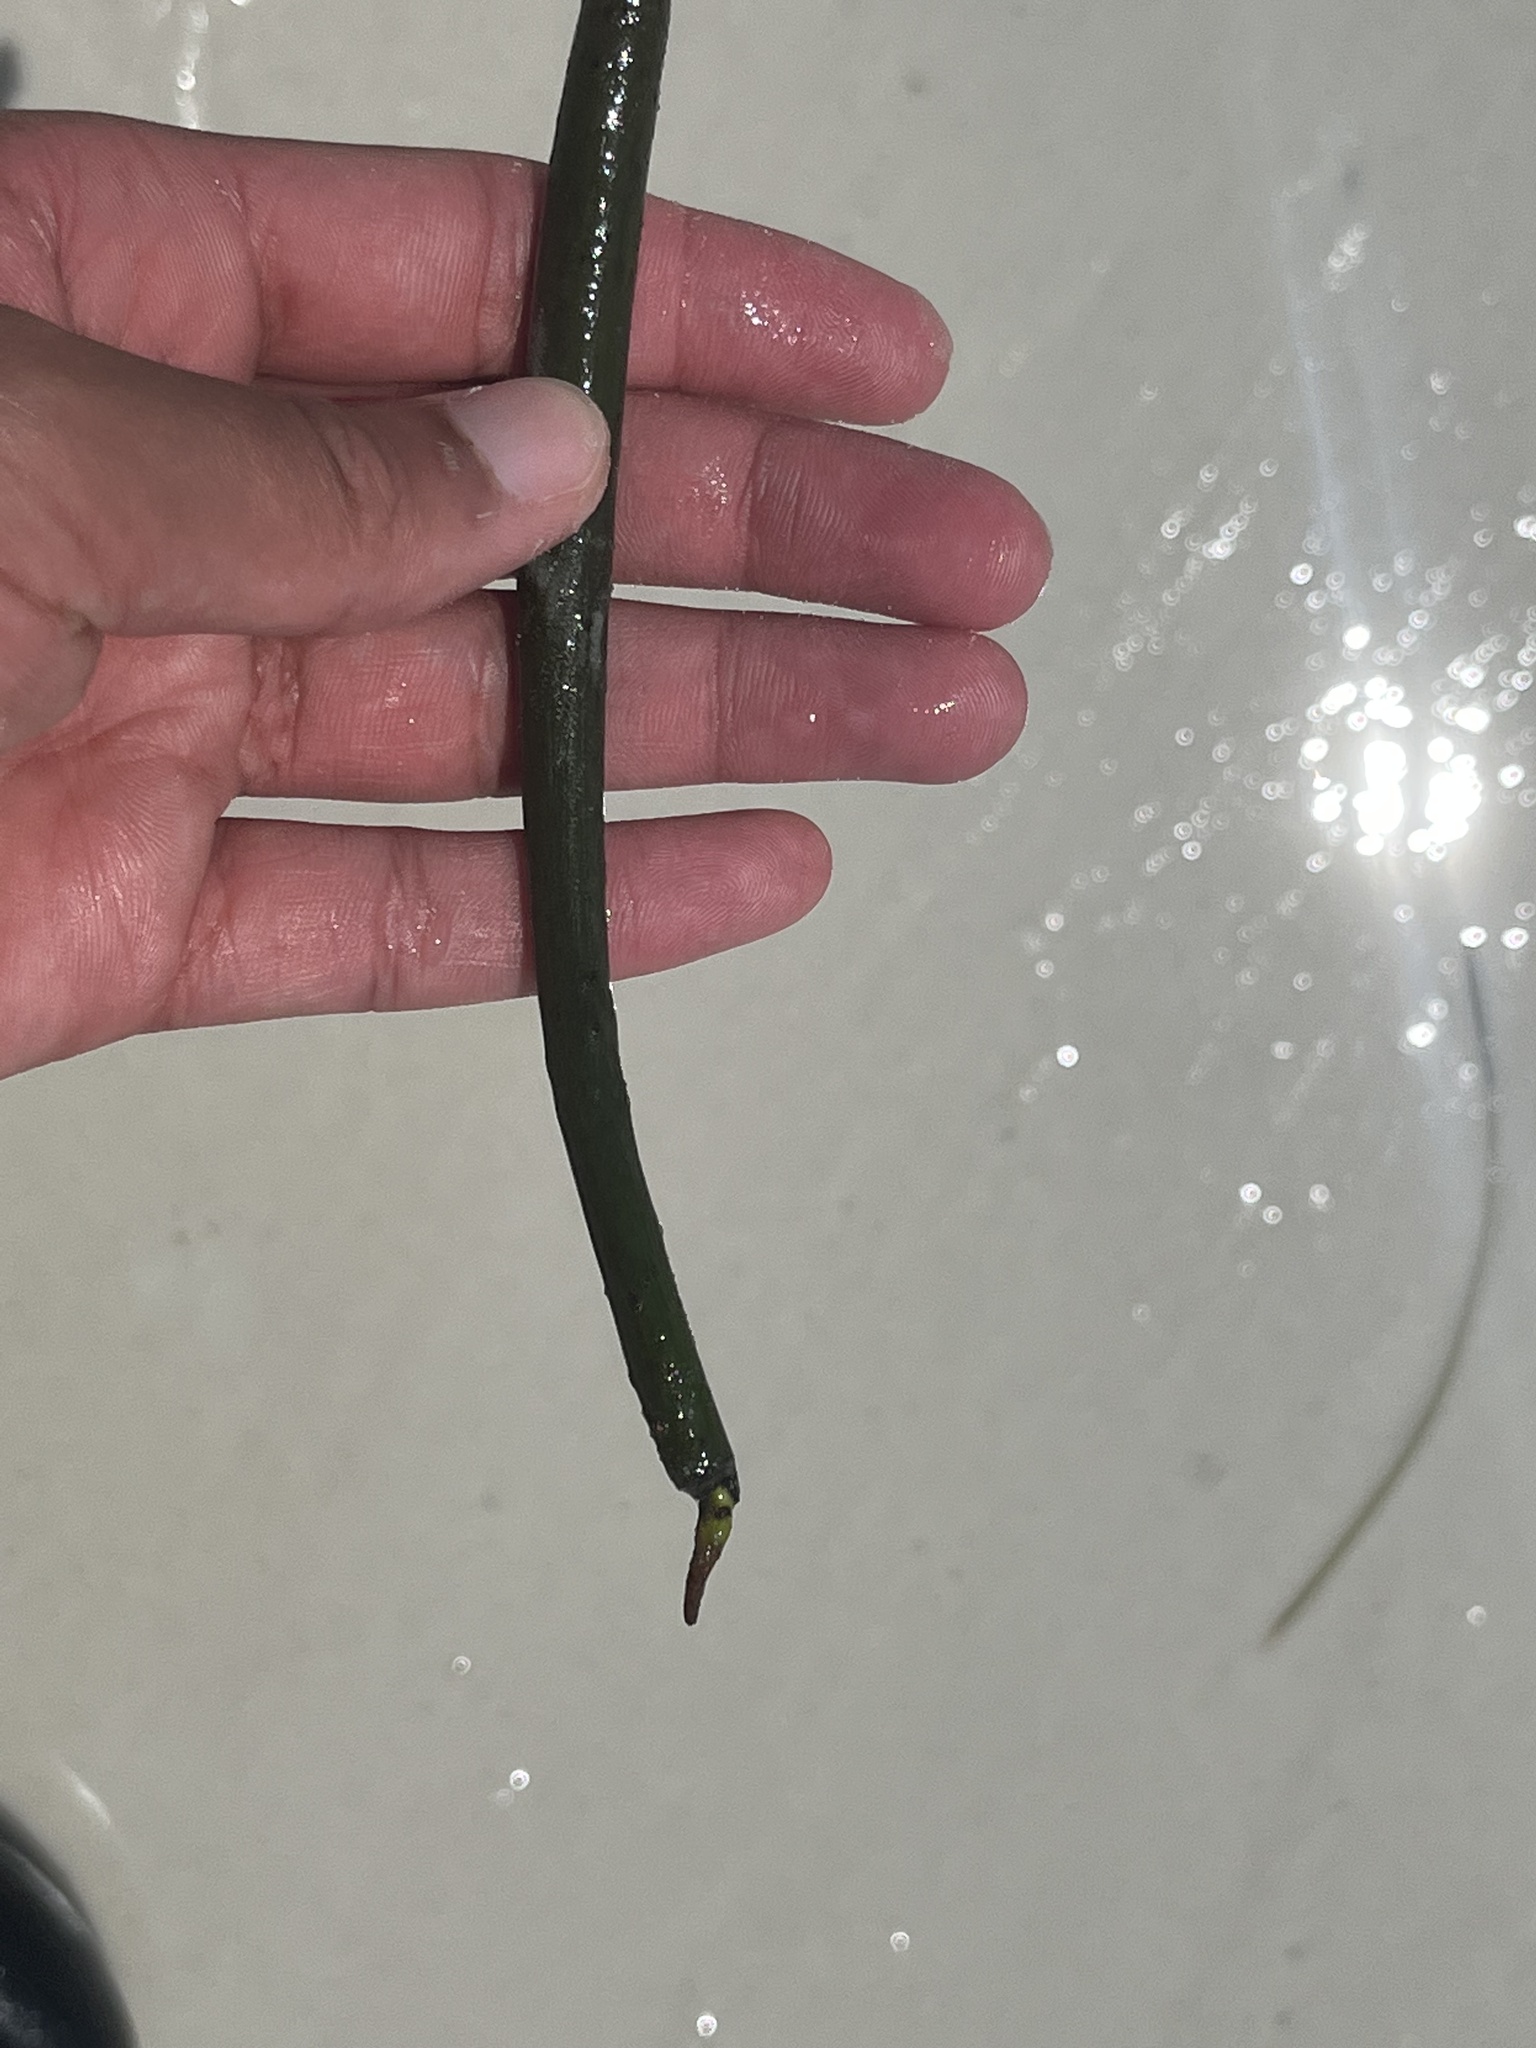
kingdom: Plantae
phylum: Tracheophyta
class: Magnoliopsida
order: Malpighiales
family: Rhizophoraceae
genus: Rhizophora
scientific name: Rhizophora mangle
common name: Red mangrove
